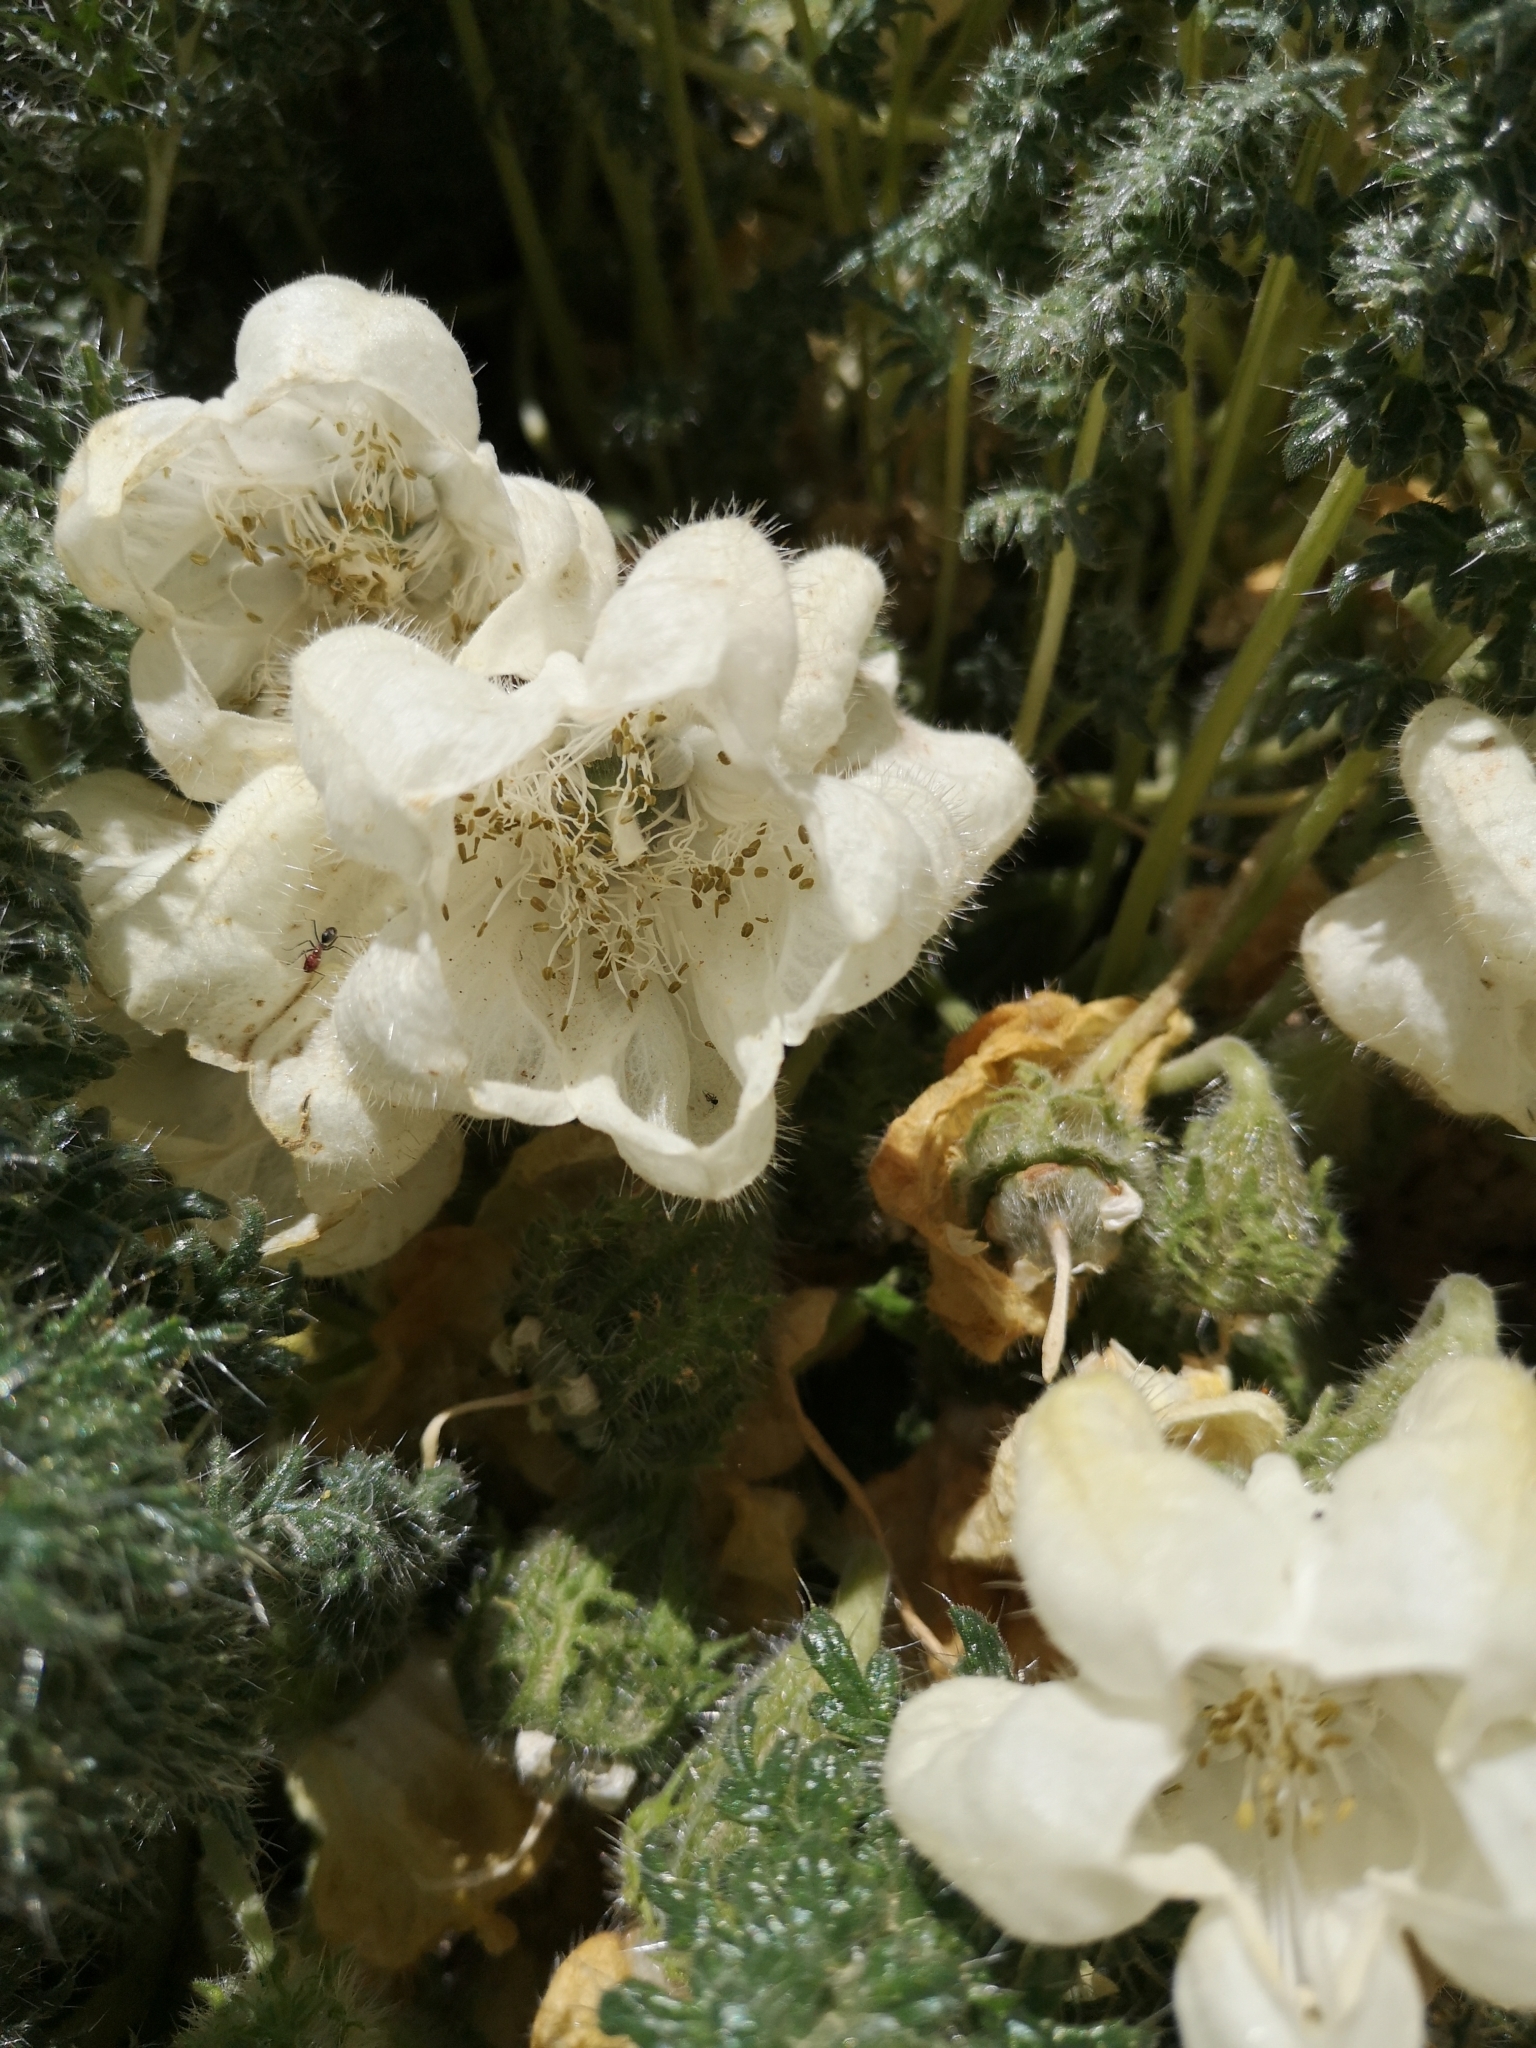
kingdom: Plantae
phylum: Tracheophyta
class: Magnoliopsida
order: Cornales
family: Loasaceae
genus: Caiophora
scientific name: Caiophora coronata
